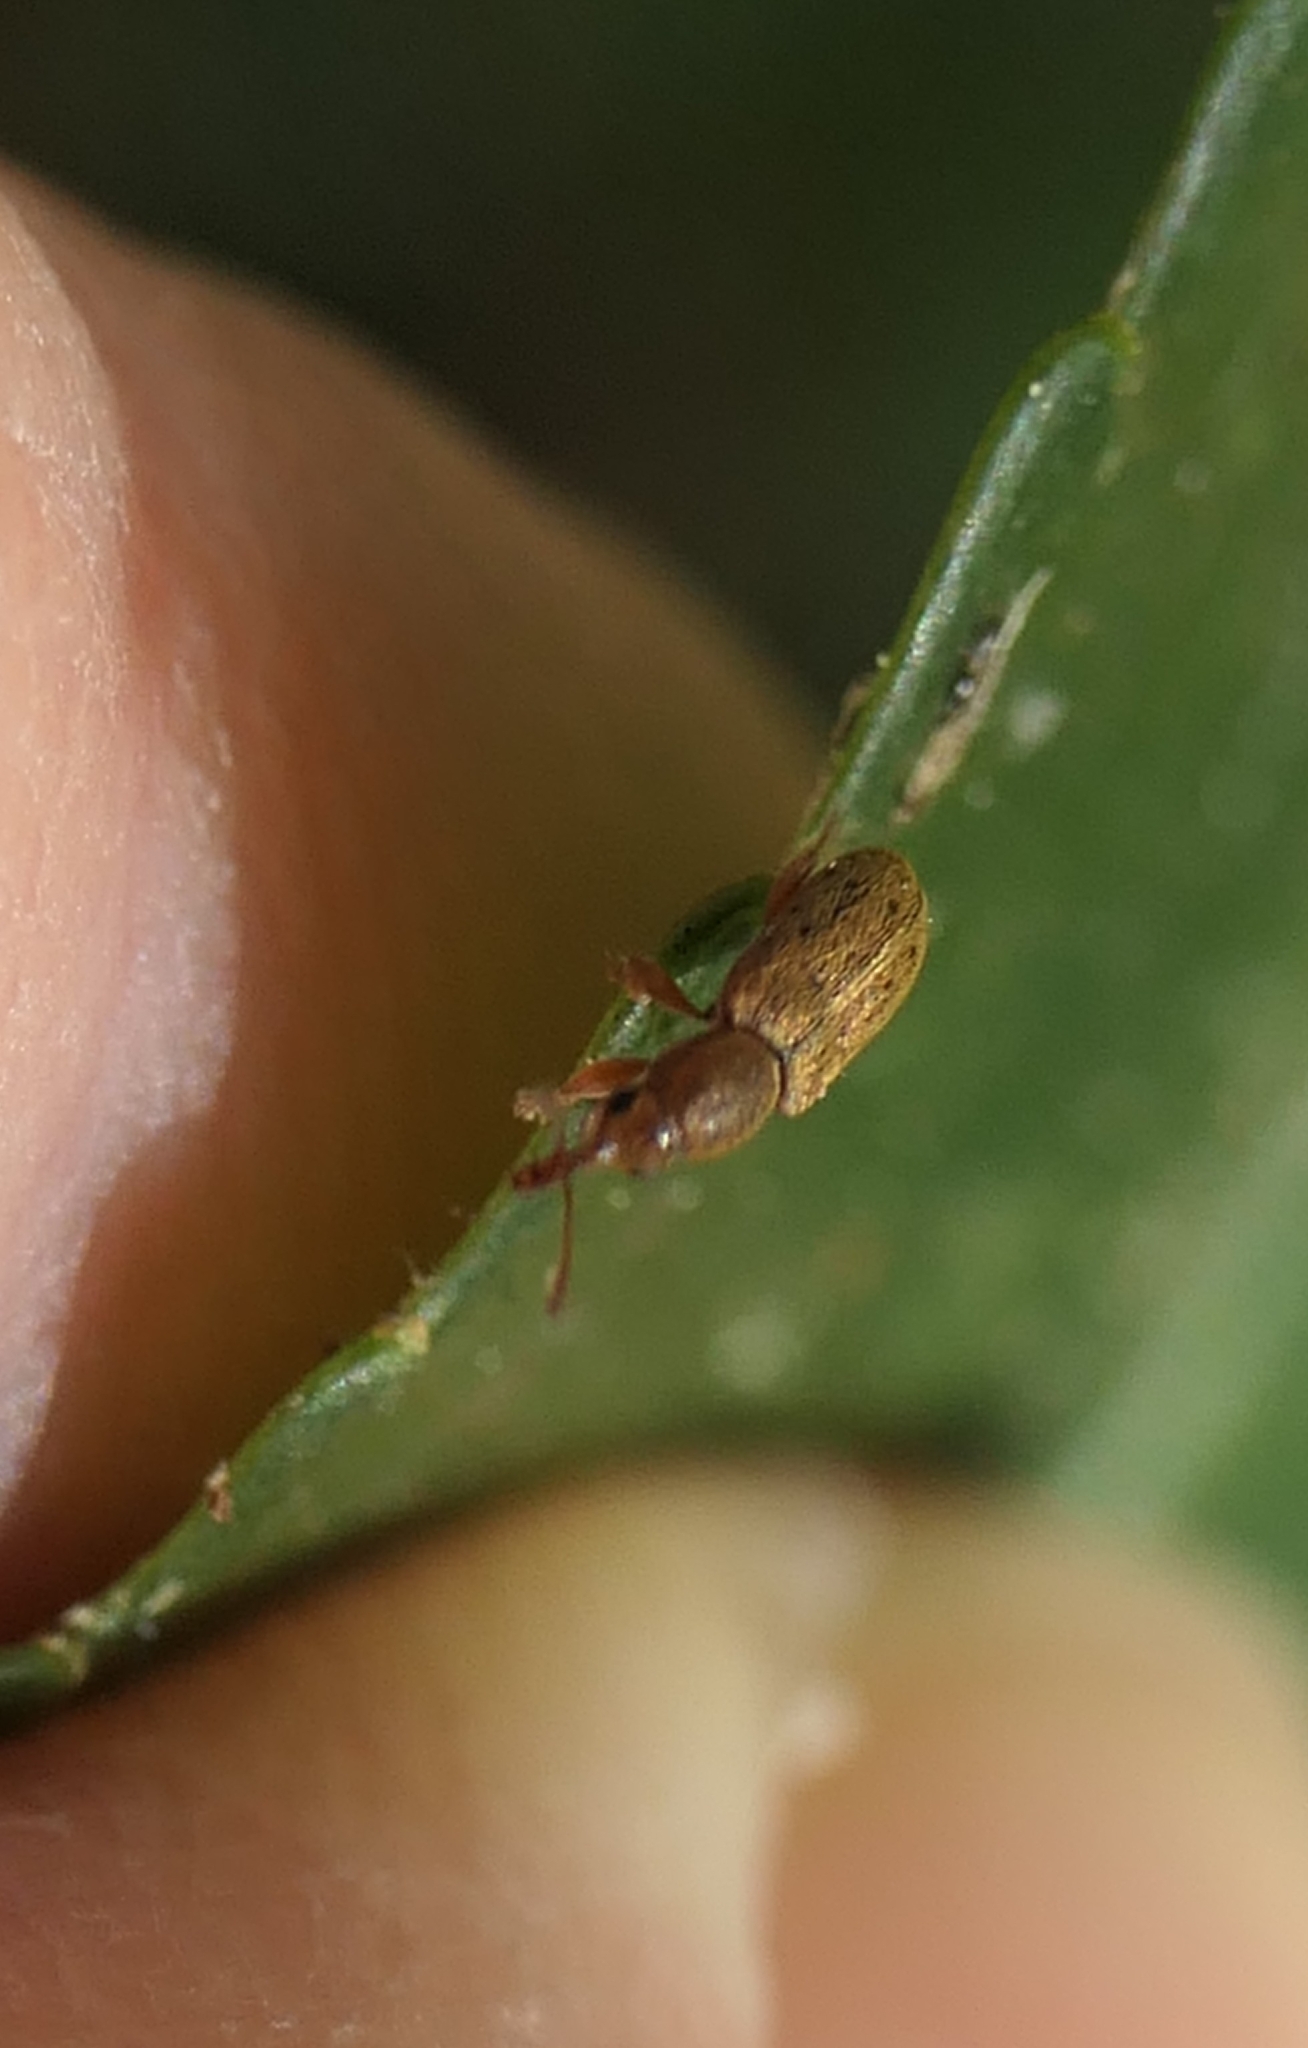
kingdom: Animalia
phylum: Arthropoda
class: Insecta
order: Coleoptera
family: Nemonychidae
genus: Rhinorhynchus
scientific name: Rhinorhynchus rufulus
